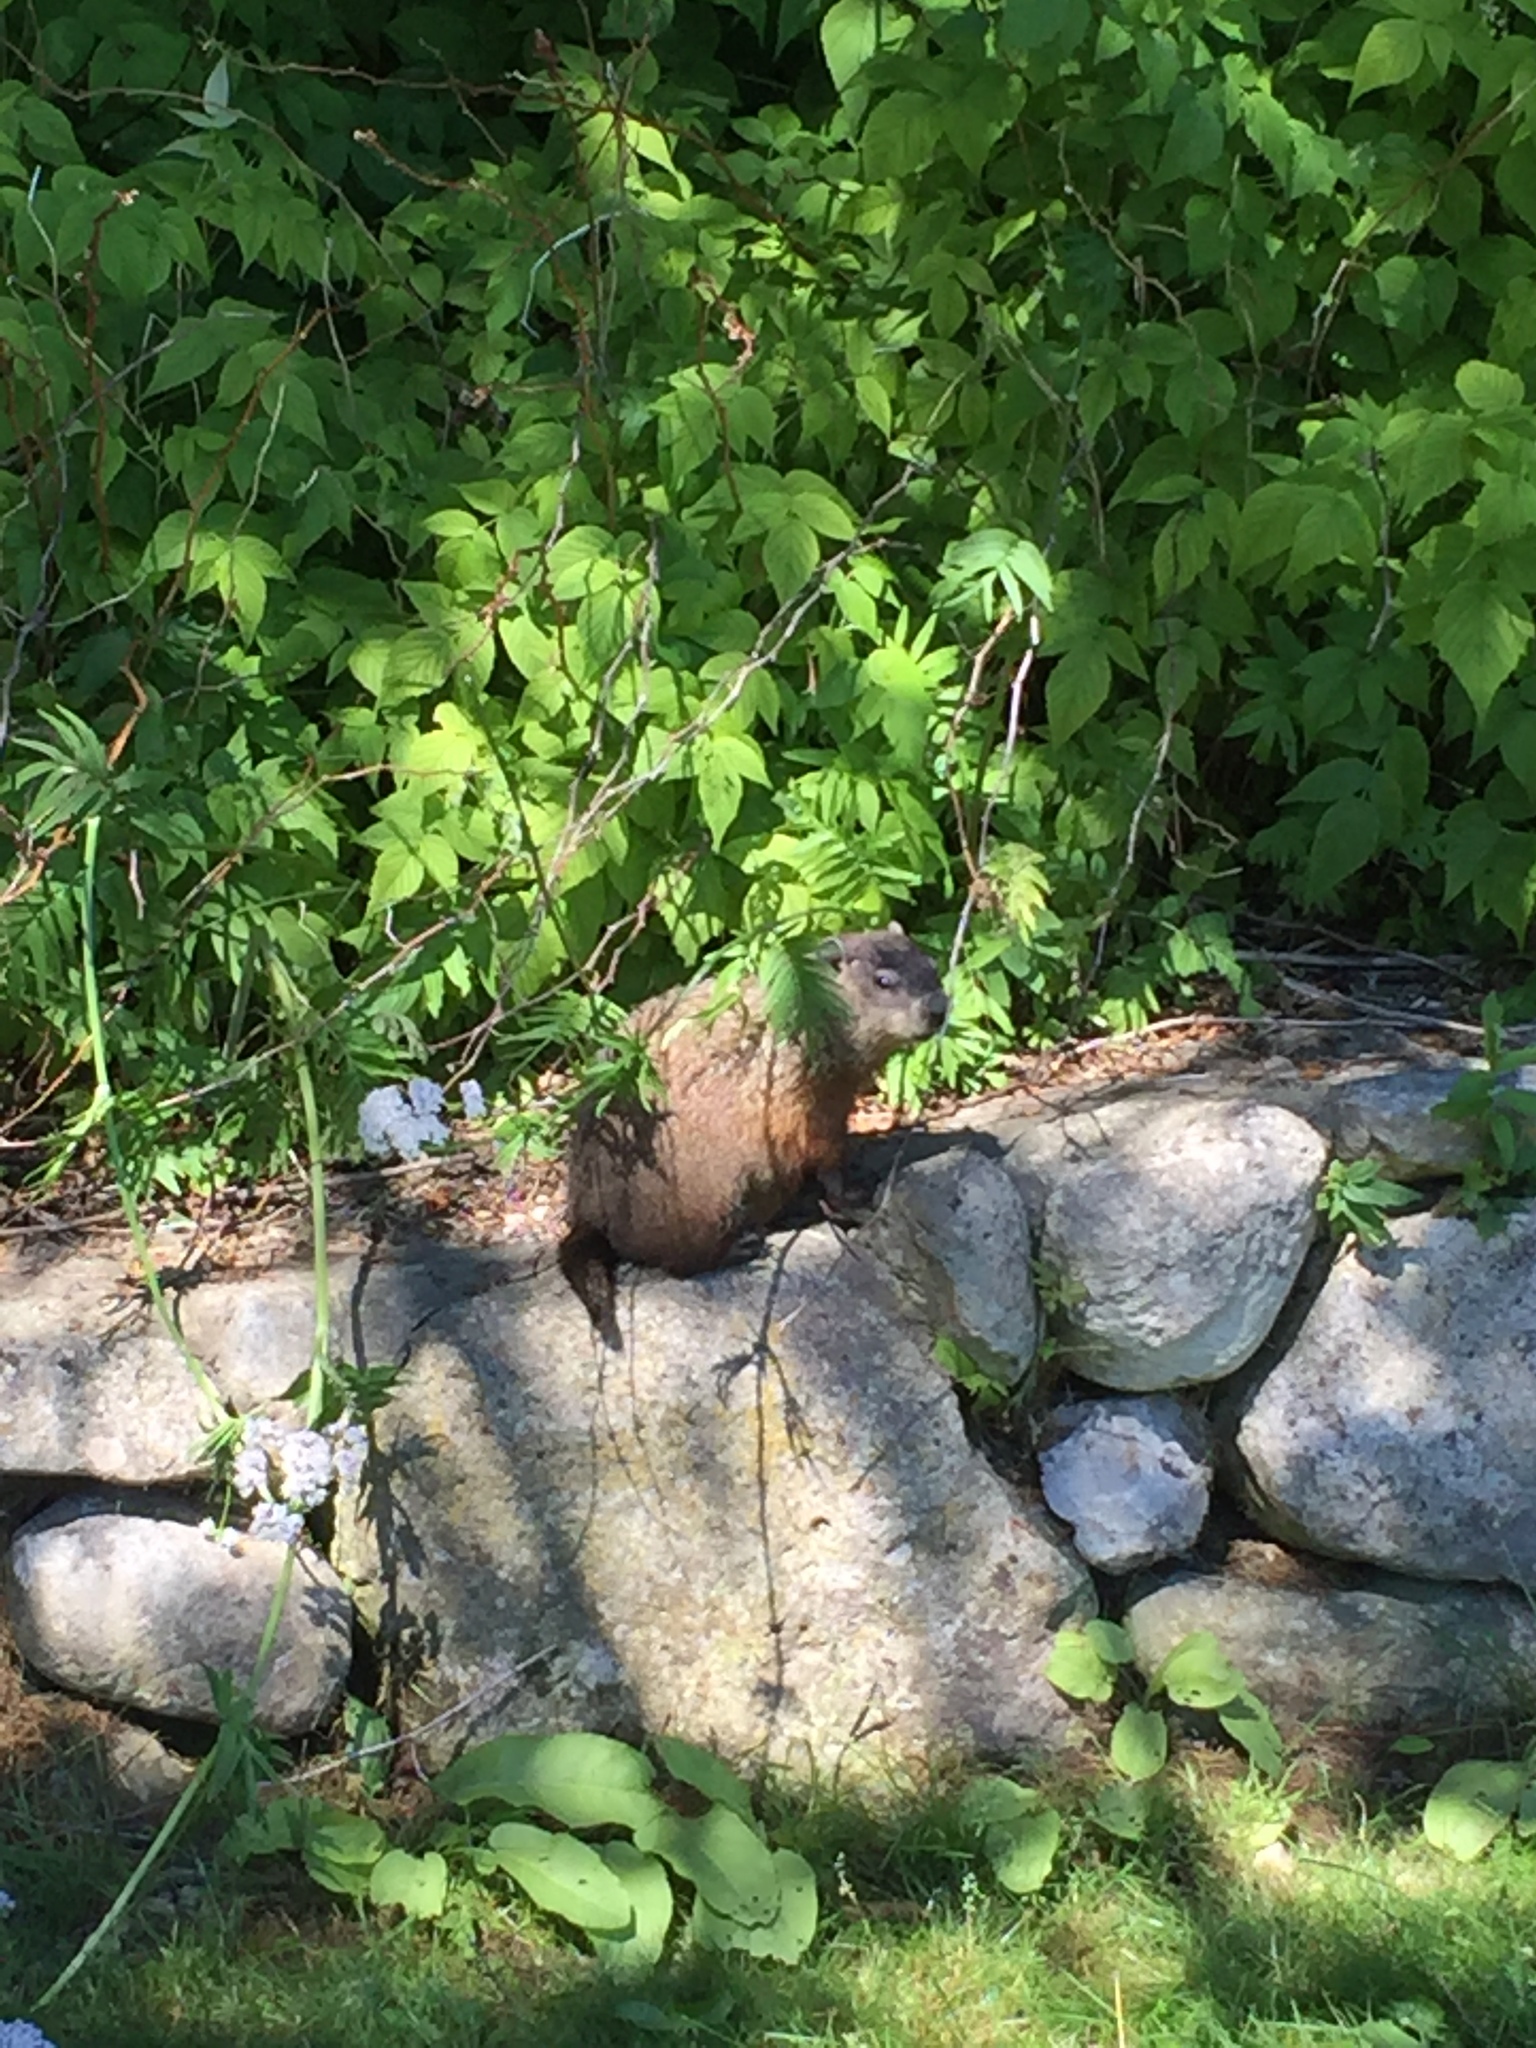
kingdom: Animalia
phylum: Chordata
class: Mammalia
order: Rodentia
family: Sciuridae
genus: Marmota
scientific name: Marmota monax
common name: Groundhog
